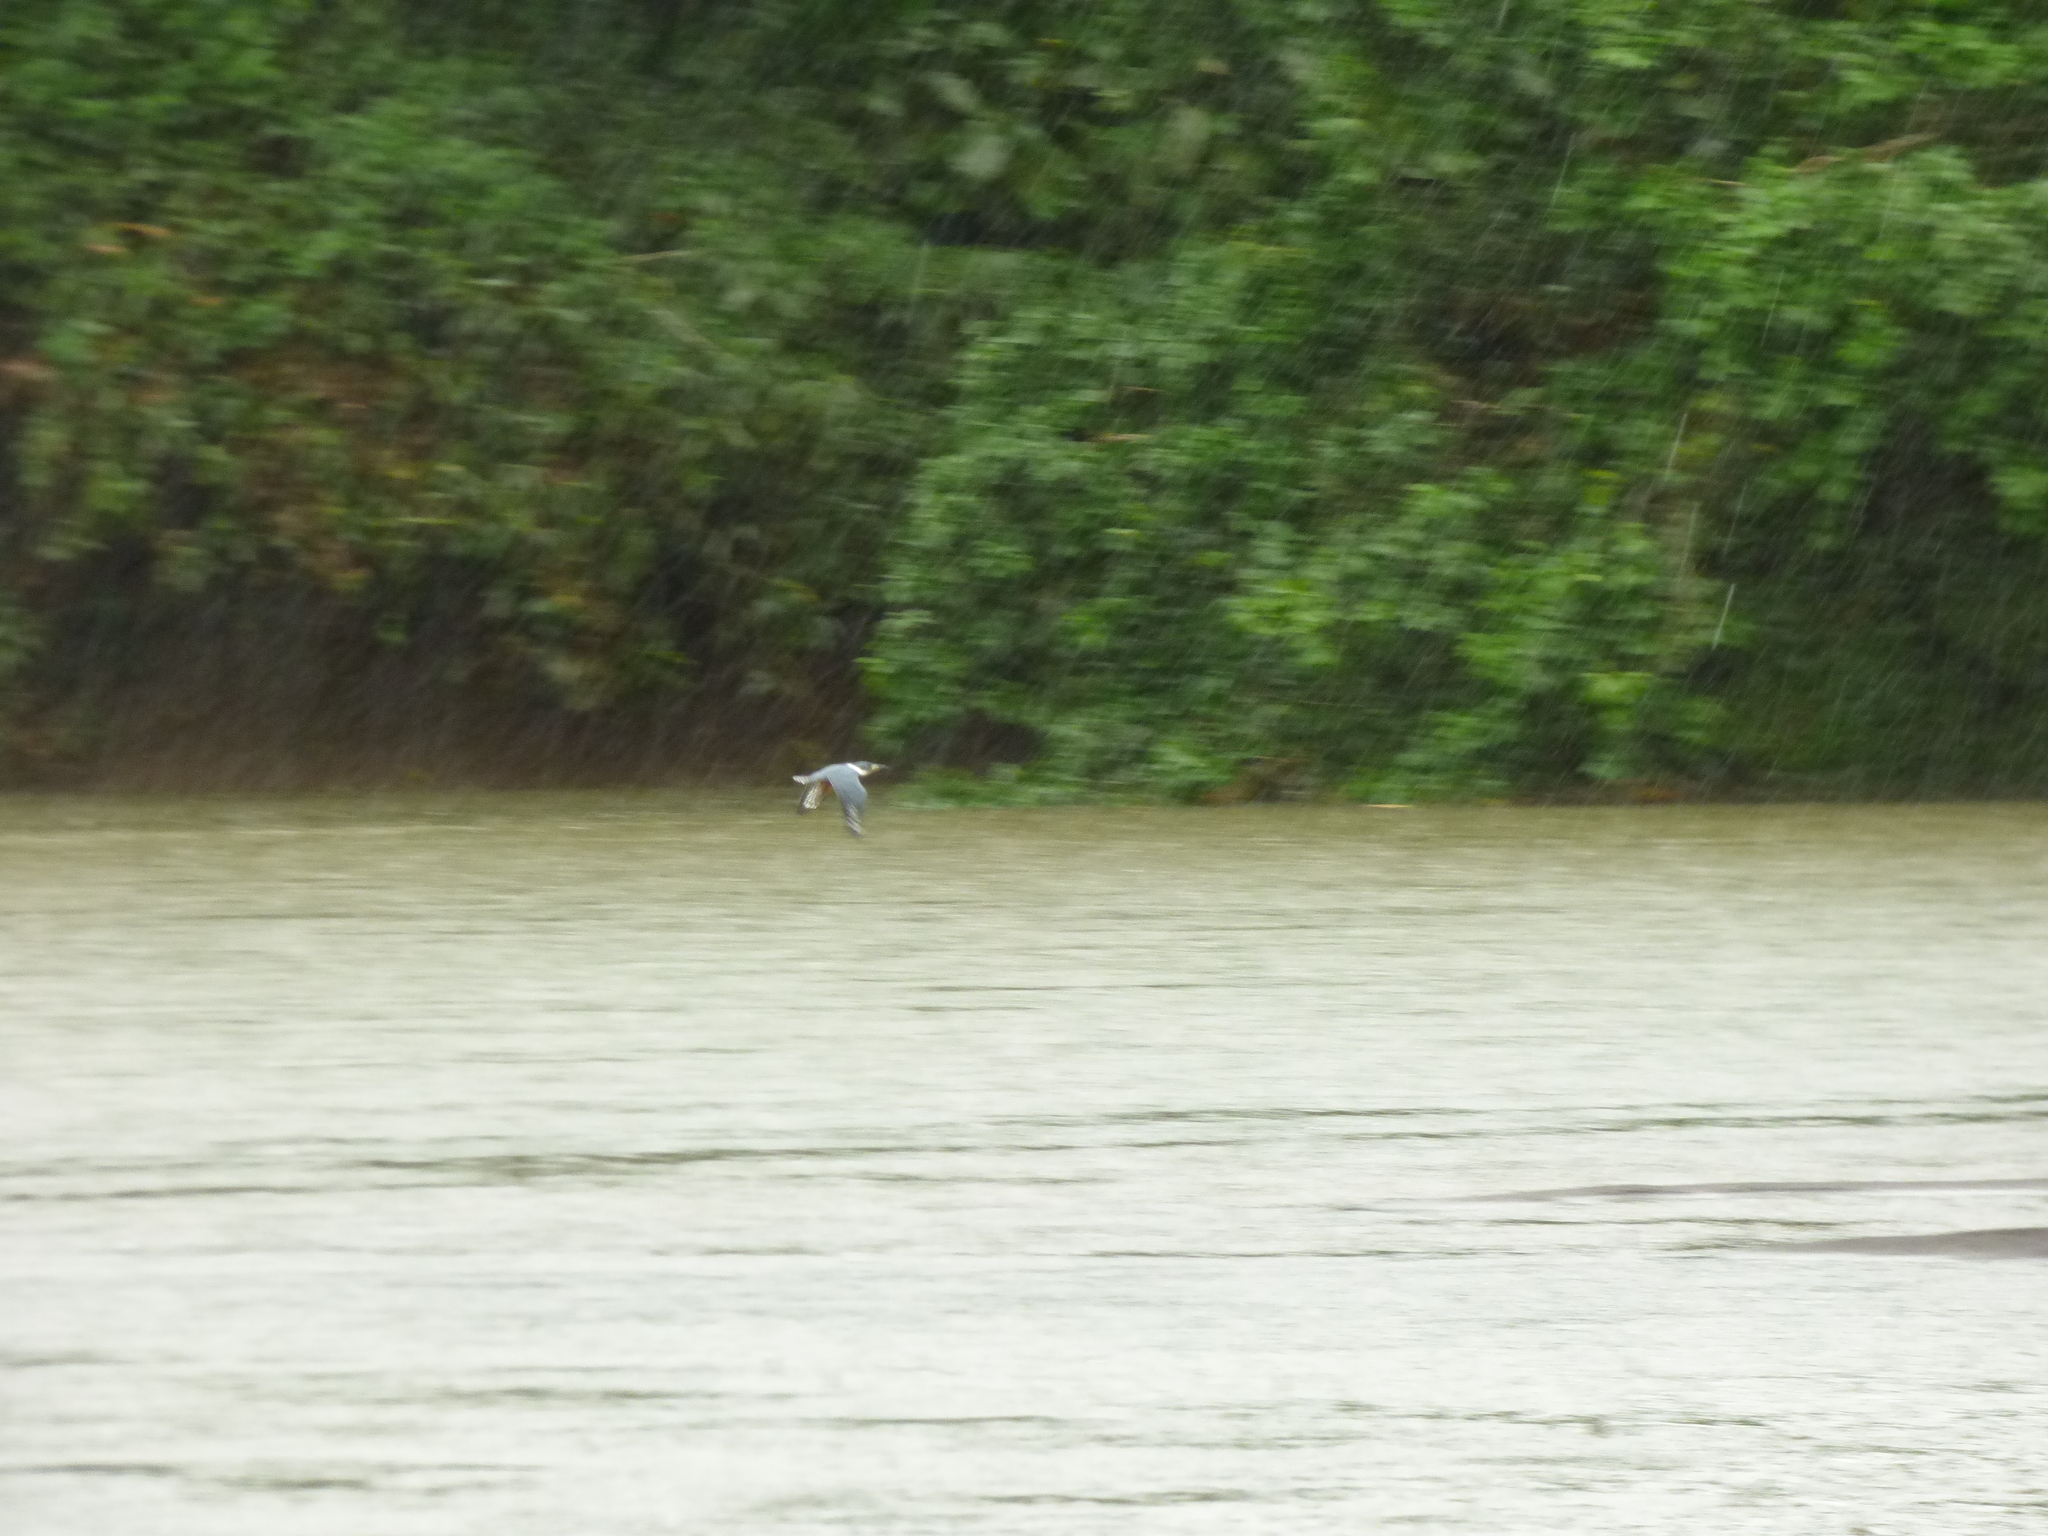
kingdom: Animalia
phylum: Chordata
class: Aves
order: Coraciiformes
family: Alcedinidae
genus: Megaceryle
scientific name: Megaceryle torquata
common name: Ringed kingfisher
